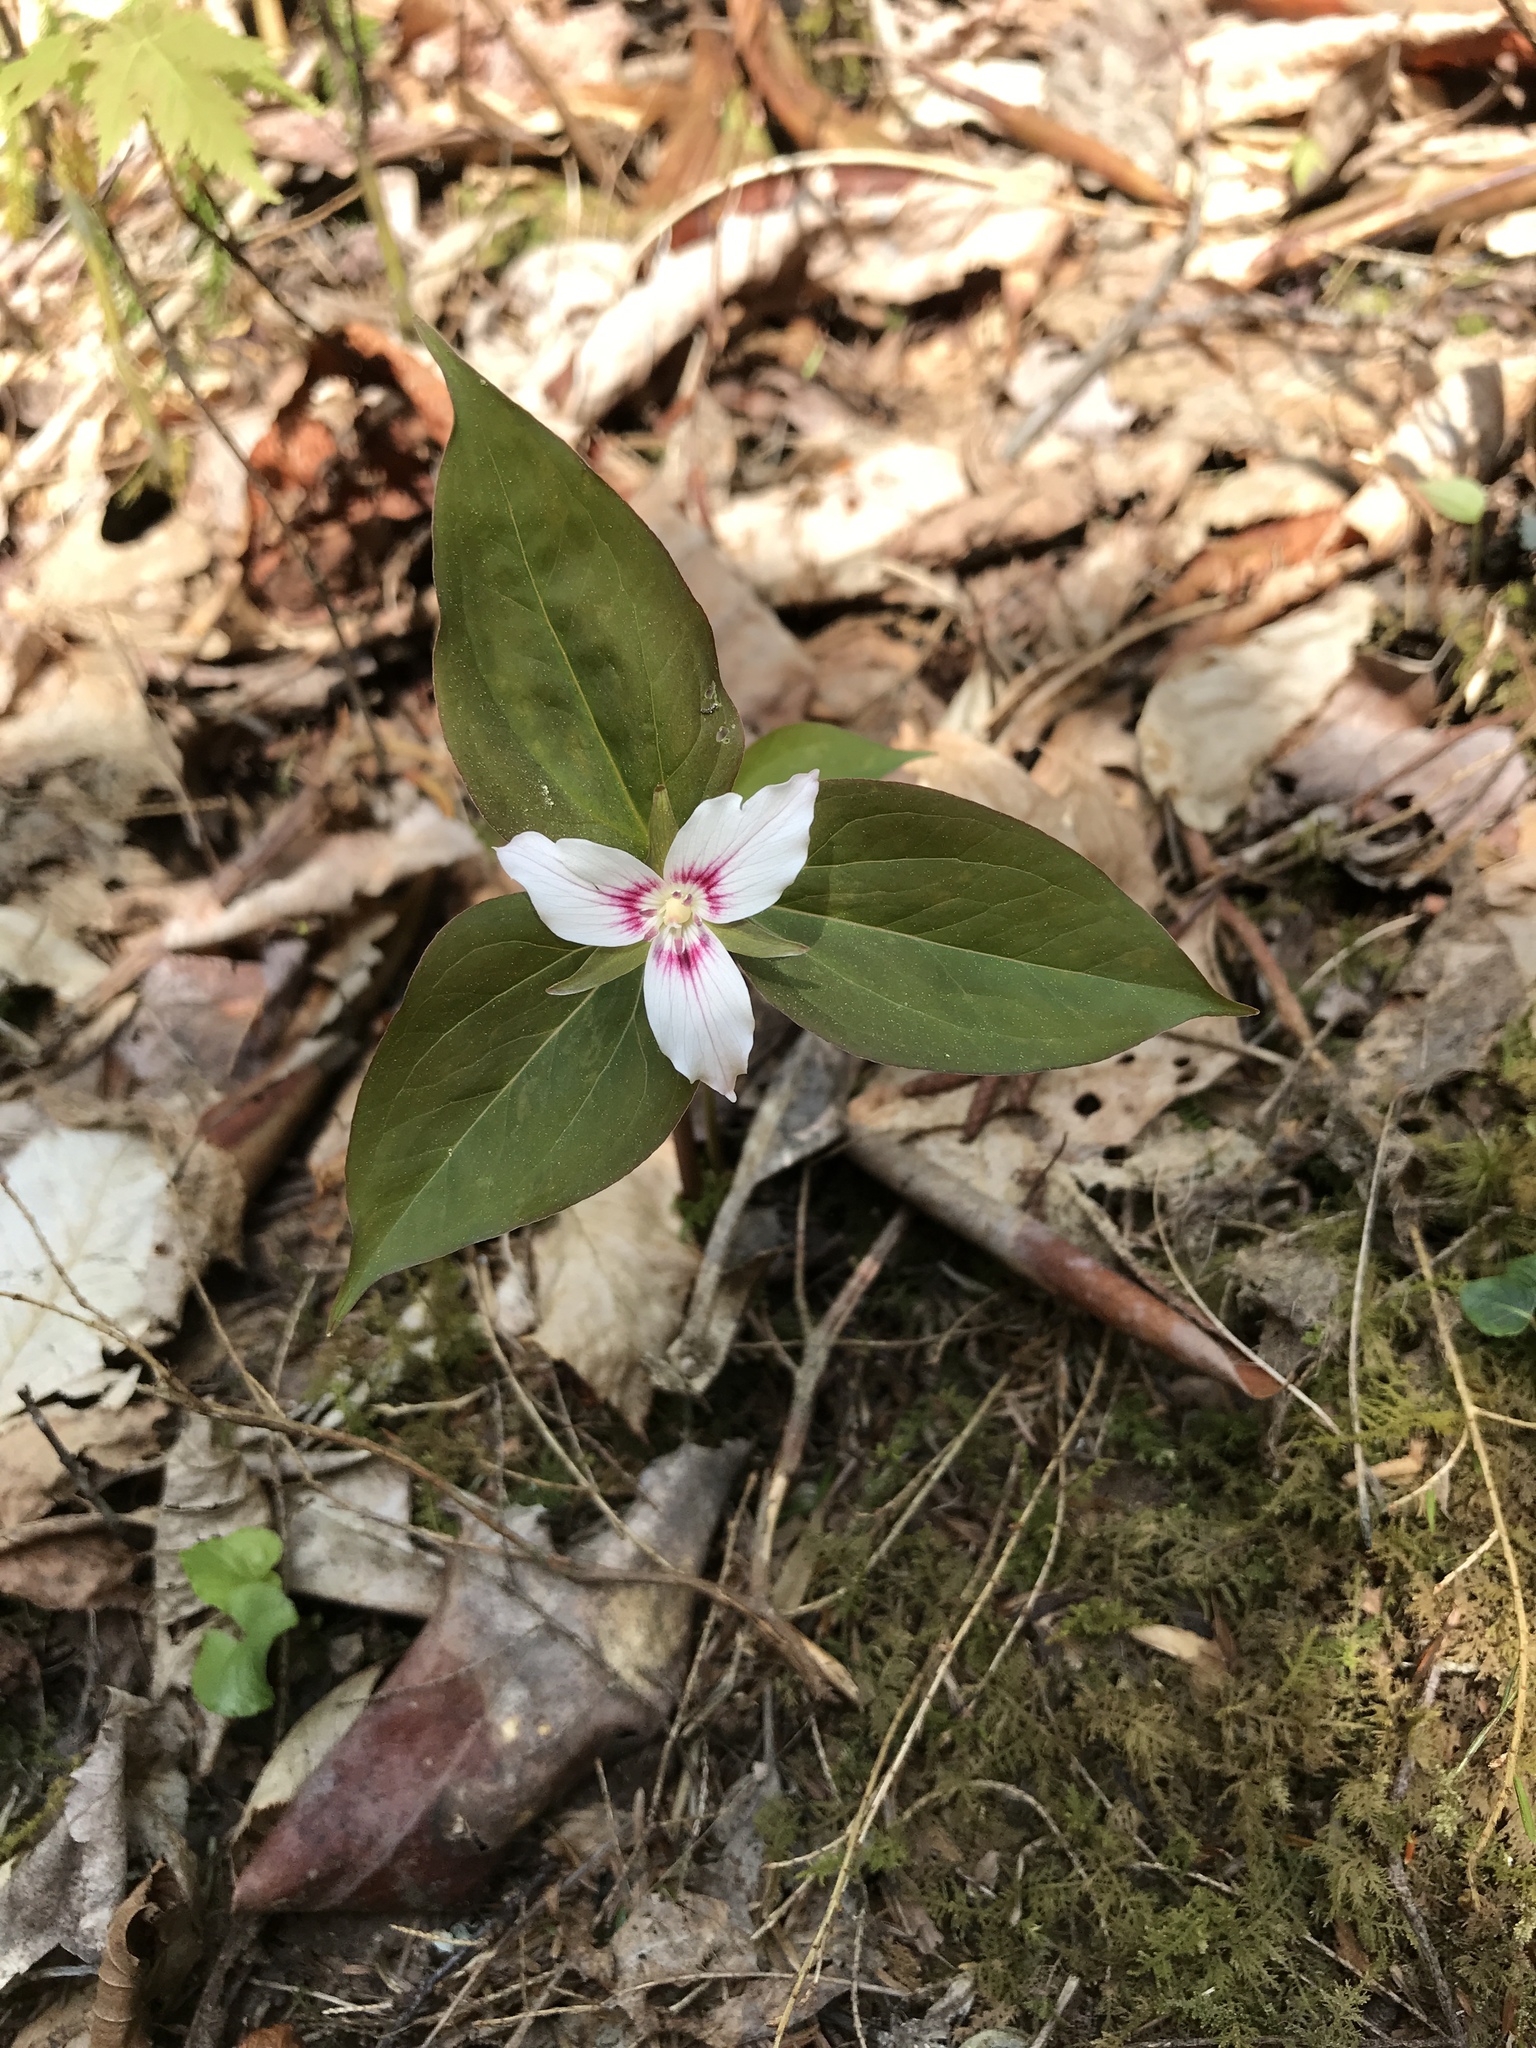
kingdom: Plantae
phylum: Tracheophyta
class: Liliopsida
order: Liliales
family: Melanthiaceae
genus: Trillium
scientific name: Trillium undulatum
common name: Paint trillium
